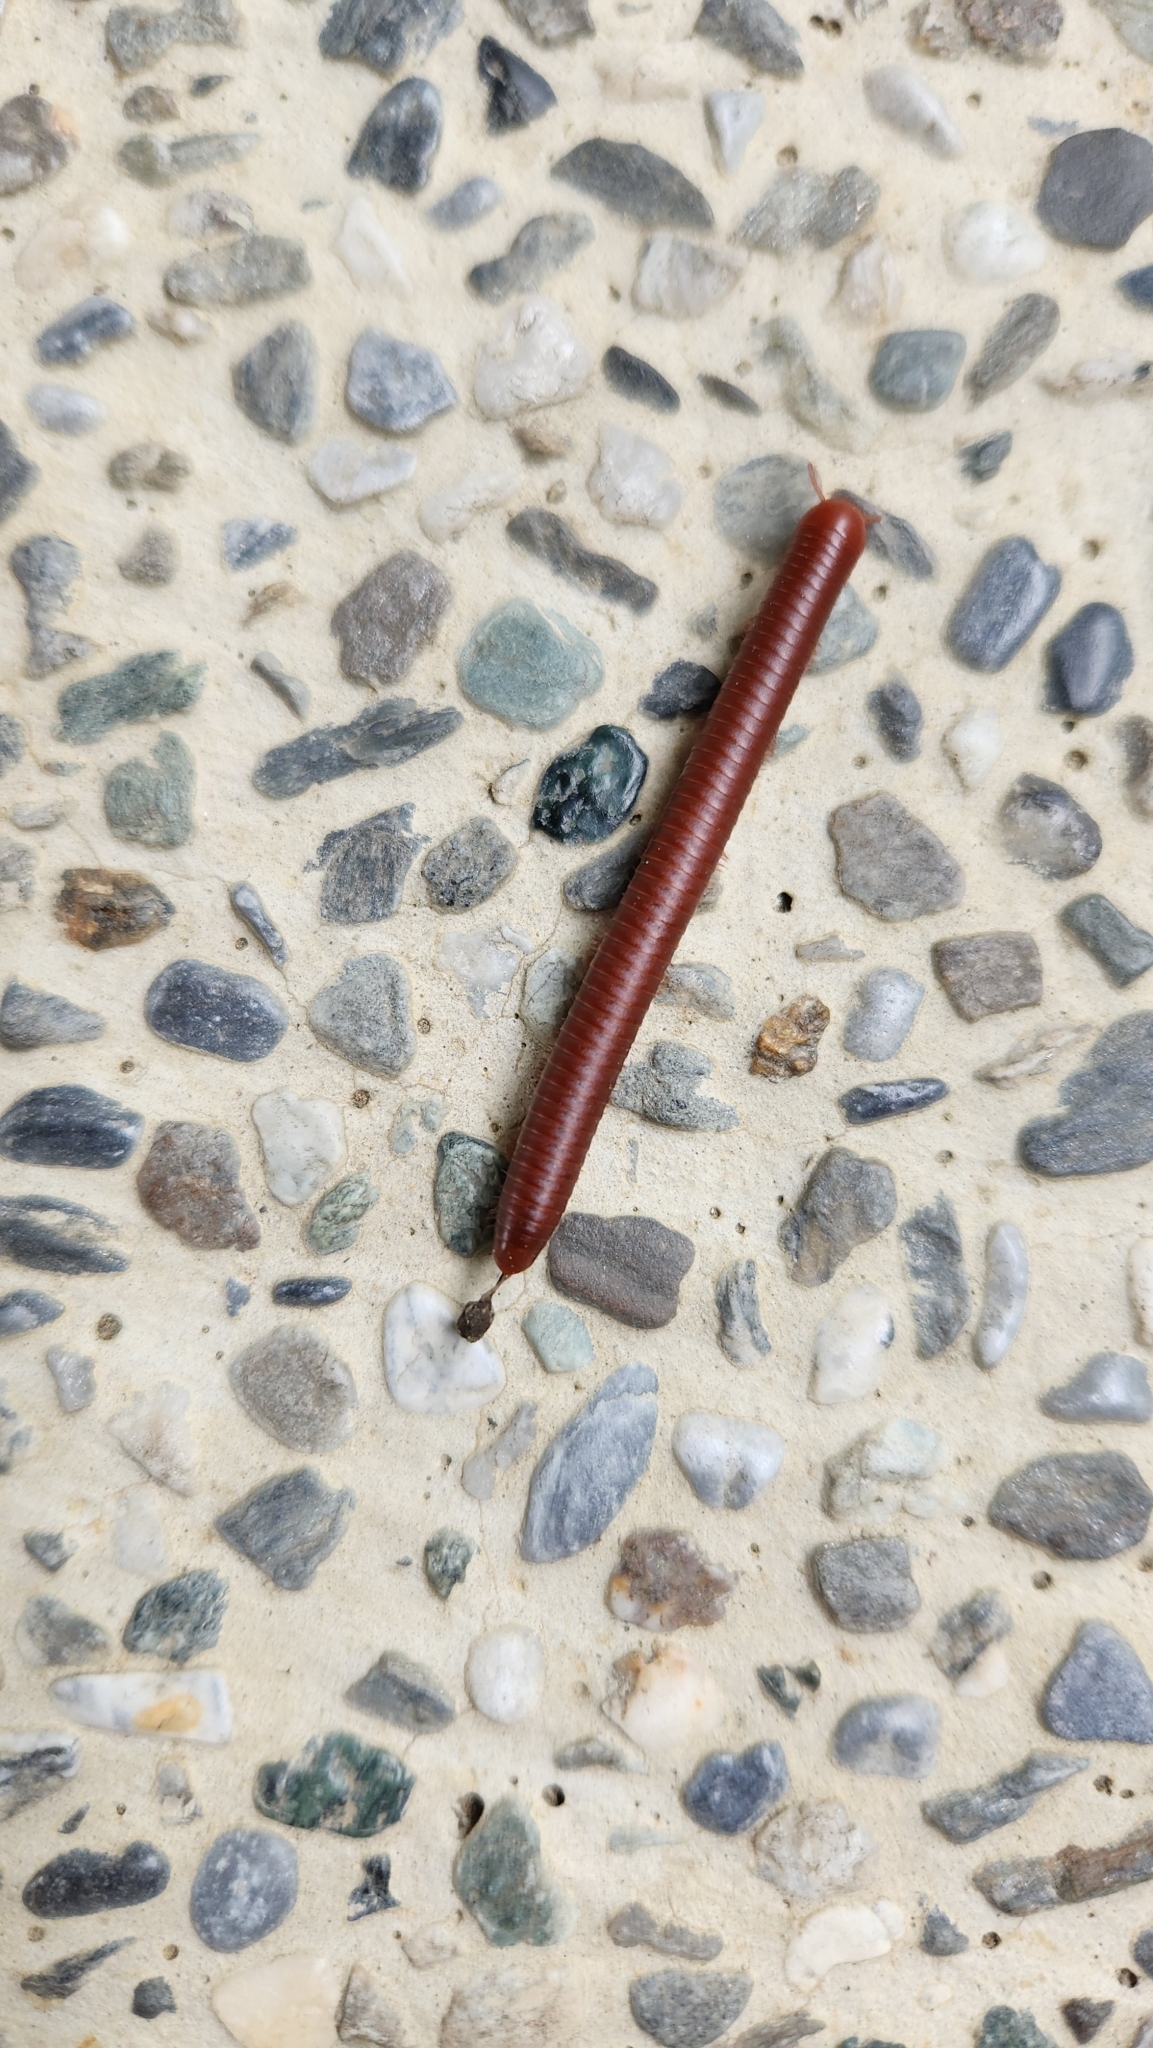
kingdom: Animalia
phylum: Arthropoda
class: Diplopoda
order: Spirobolida
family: Pachybolidae
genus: Trigoniulus
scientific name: Trigoniulus corallinus
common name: Millipede
